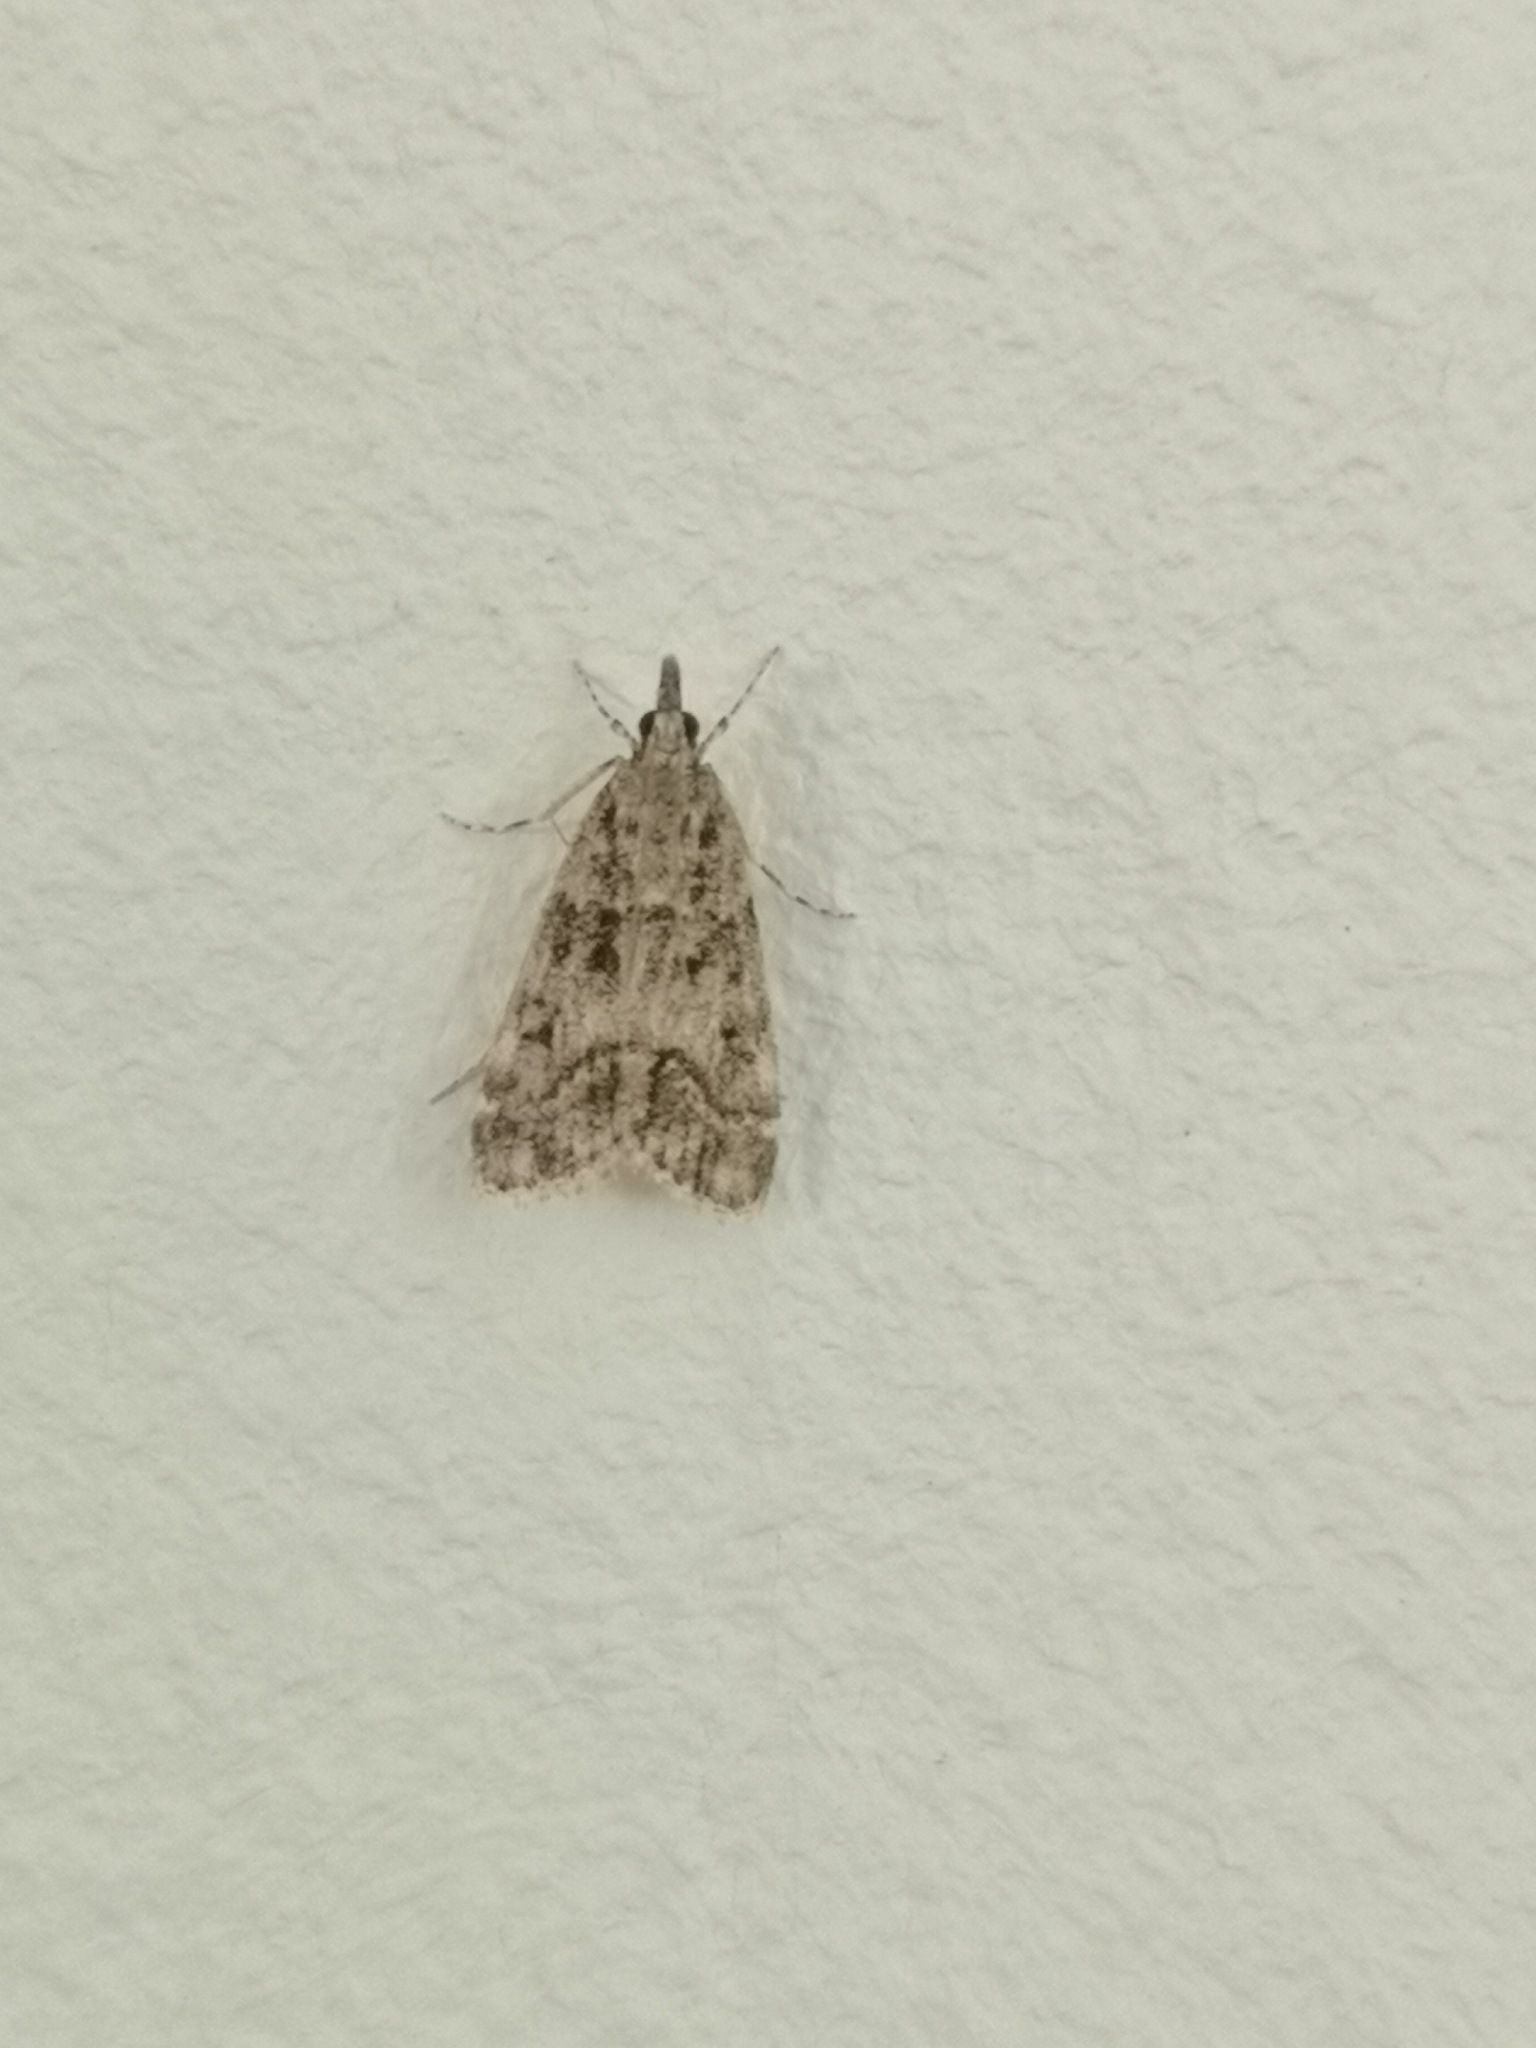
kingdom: Animalia
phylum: Arthropoda
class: Insecta
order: Lepidoptera
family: Crambidae
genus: Eudonia
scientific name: Eudonia lacustrata
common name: Little grey
